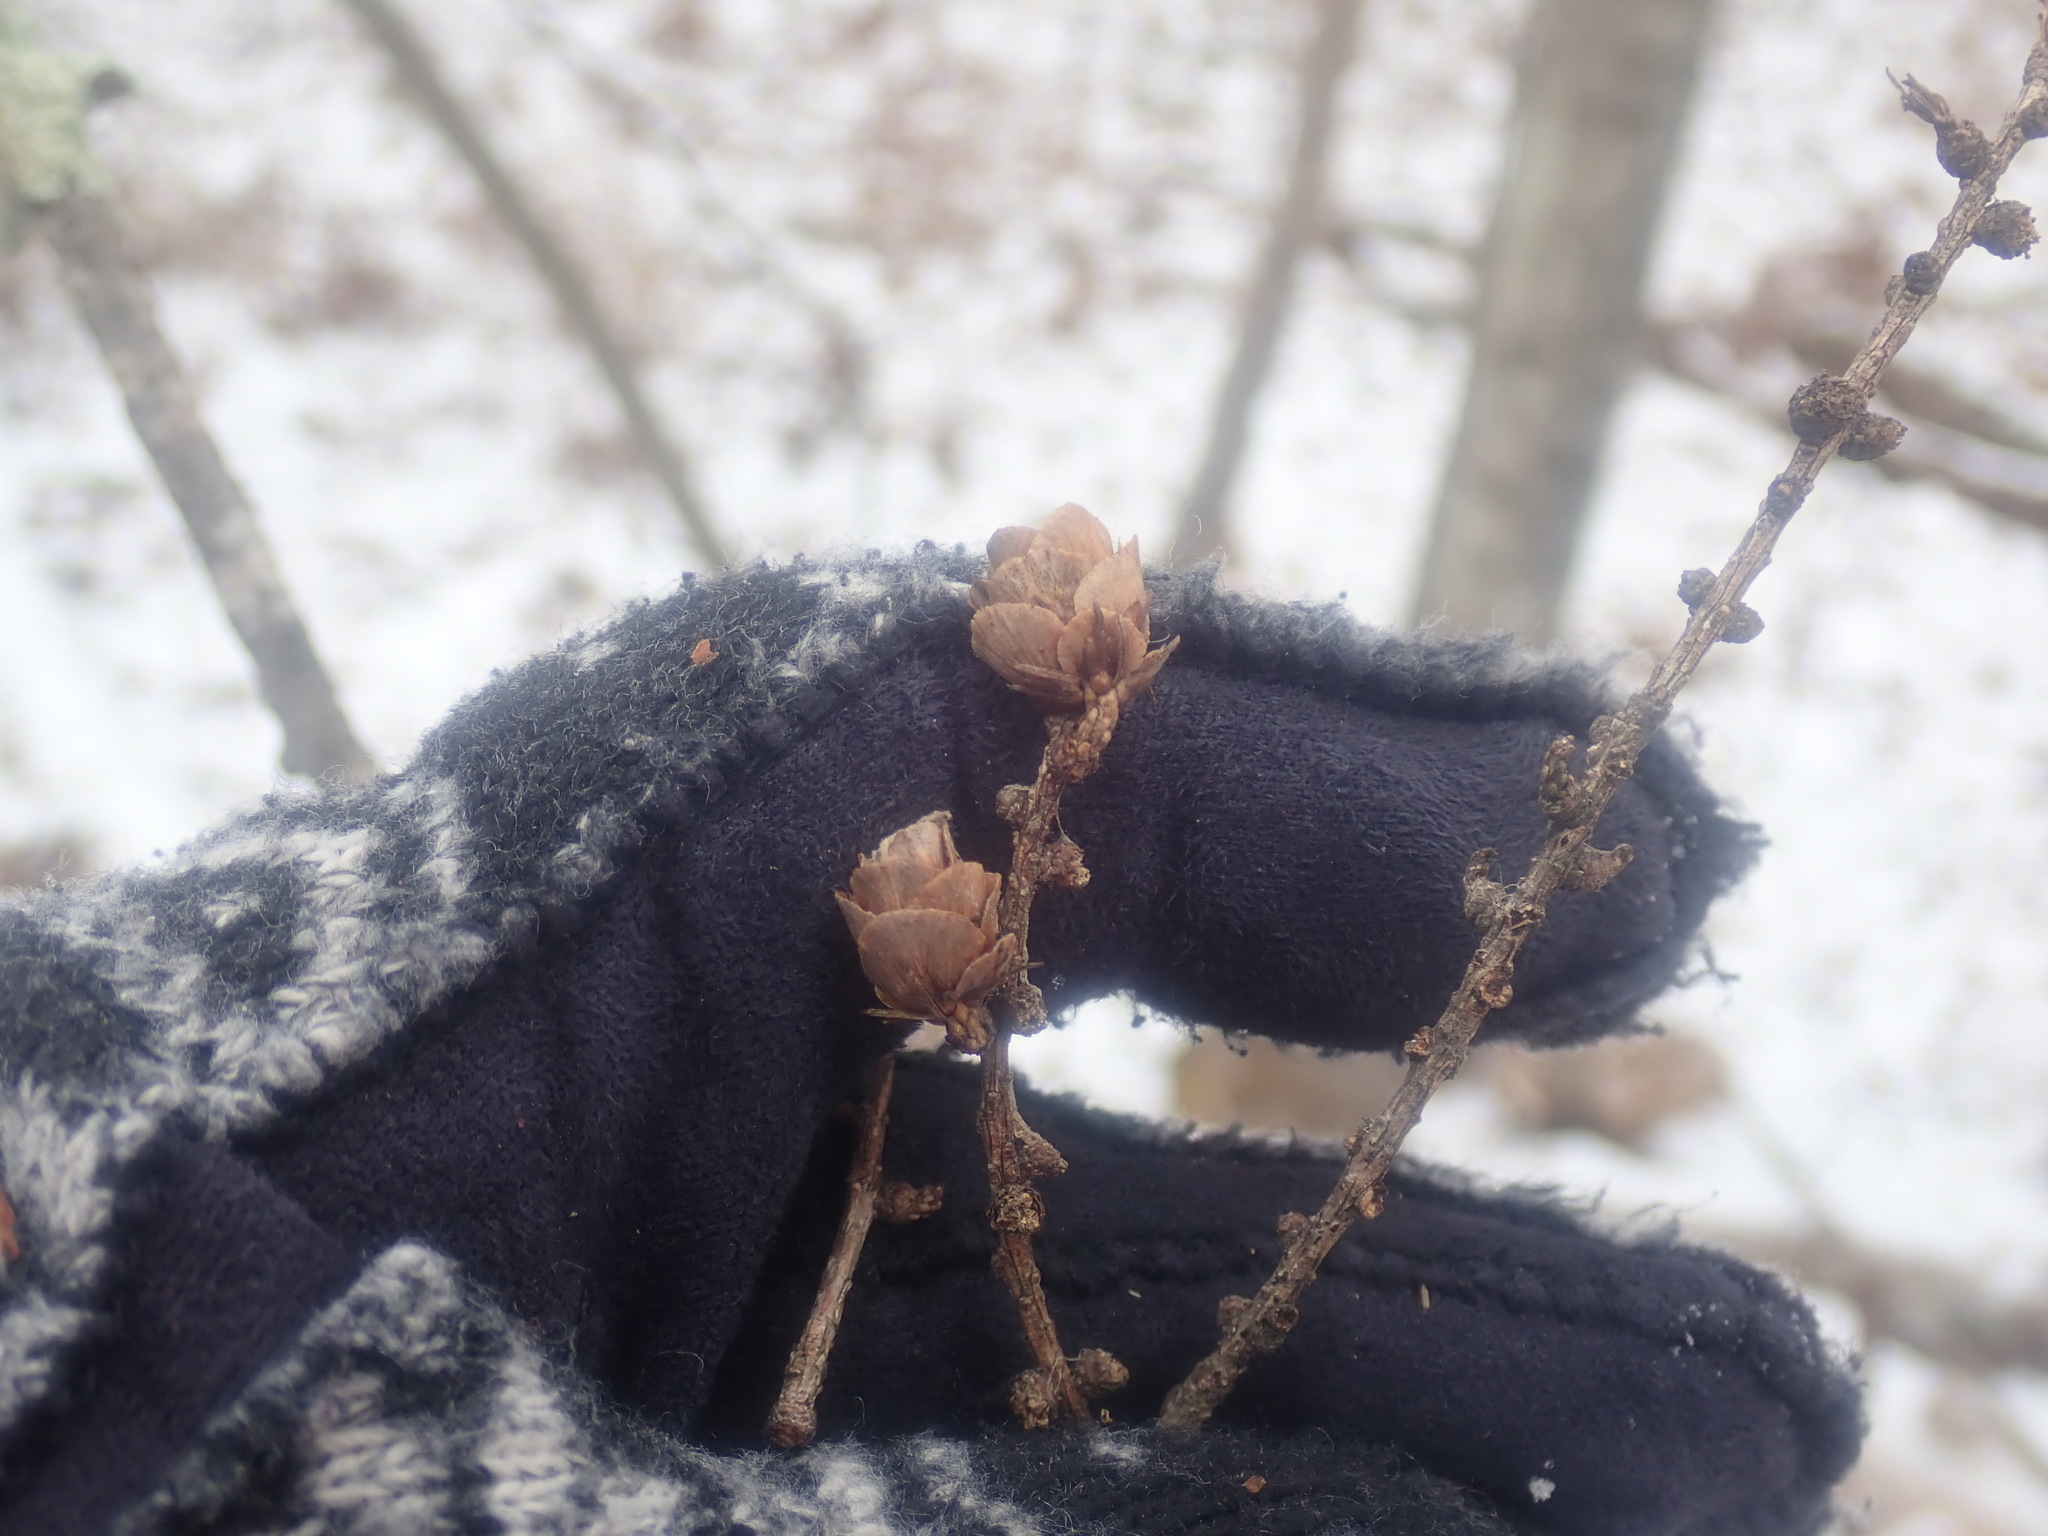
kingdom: Plantae
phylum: Tracheophyta
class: Pinopsida
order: Pinales
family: Pinaceae
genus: Larix
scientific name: Larix laricina
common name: American larch
